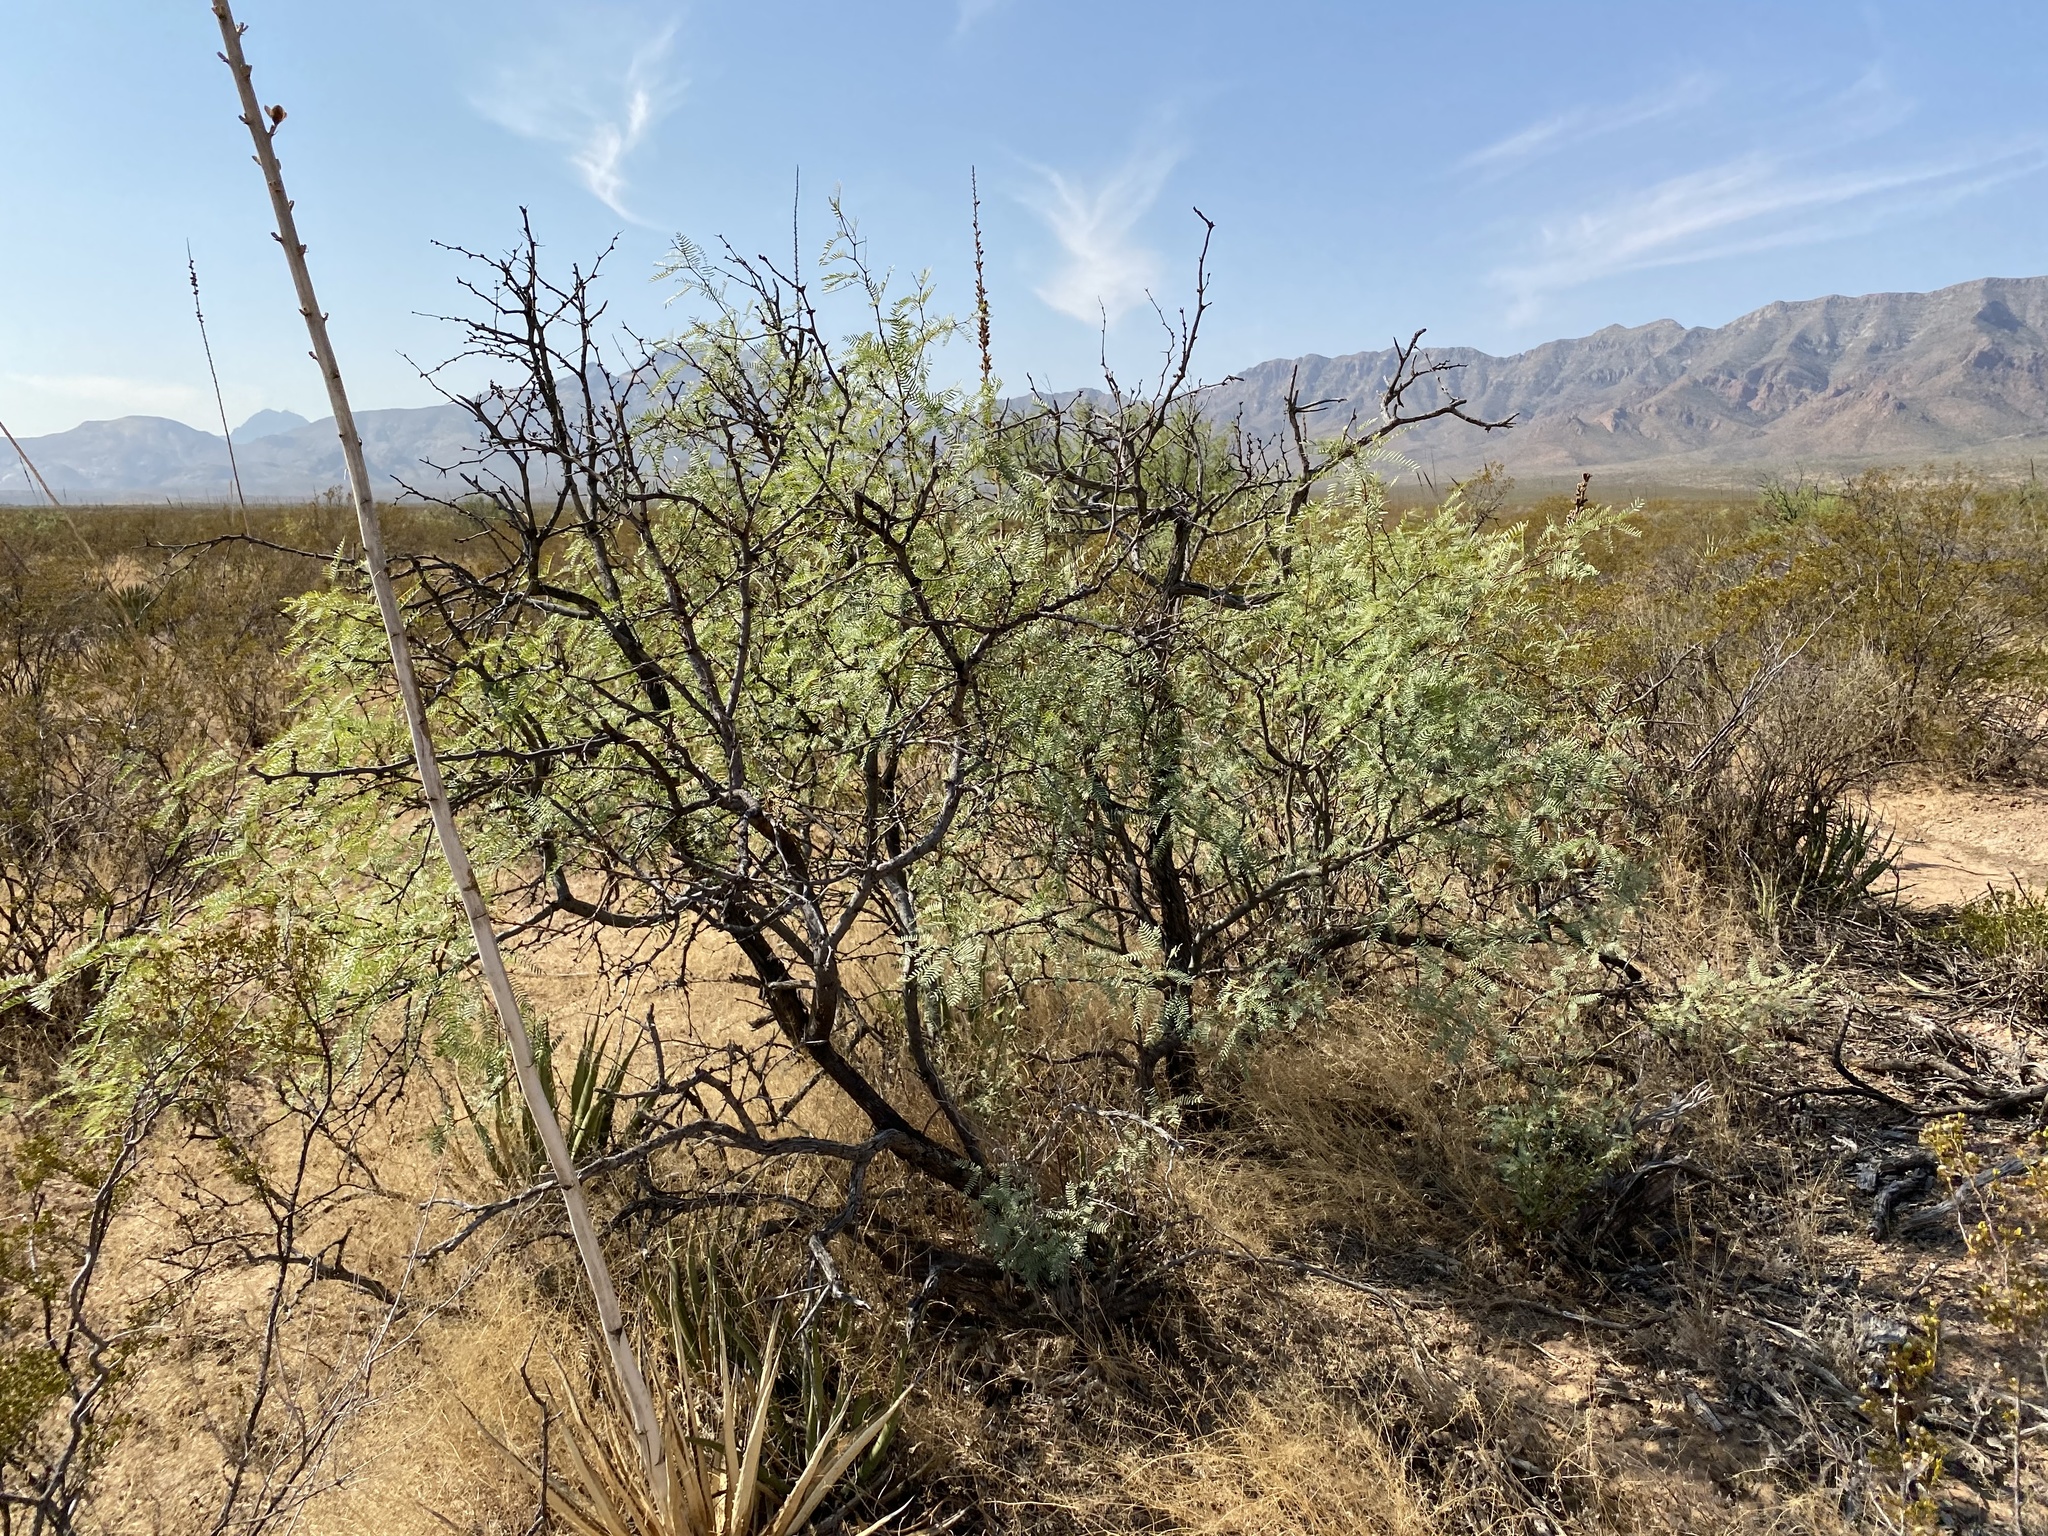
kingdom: Plantae
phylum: Tracheophyta
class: Magnoliopsida
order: Fabales
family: Fabaceae
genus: Prosopis
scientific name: Prosopis glandulosa
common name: Honey mesquite
